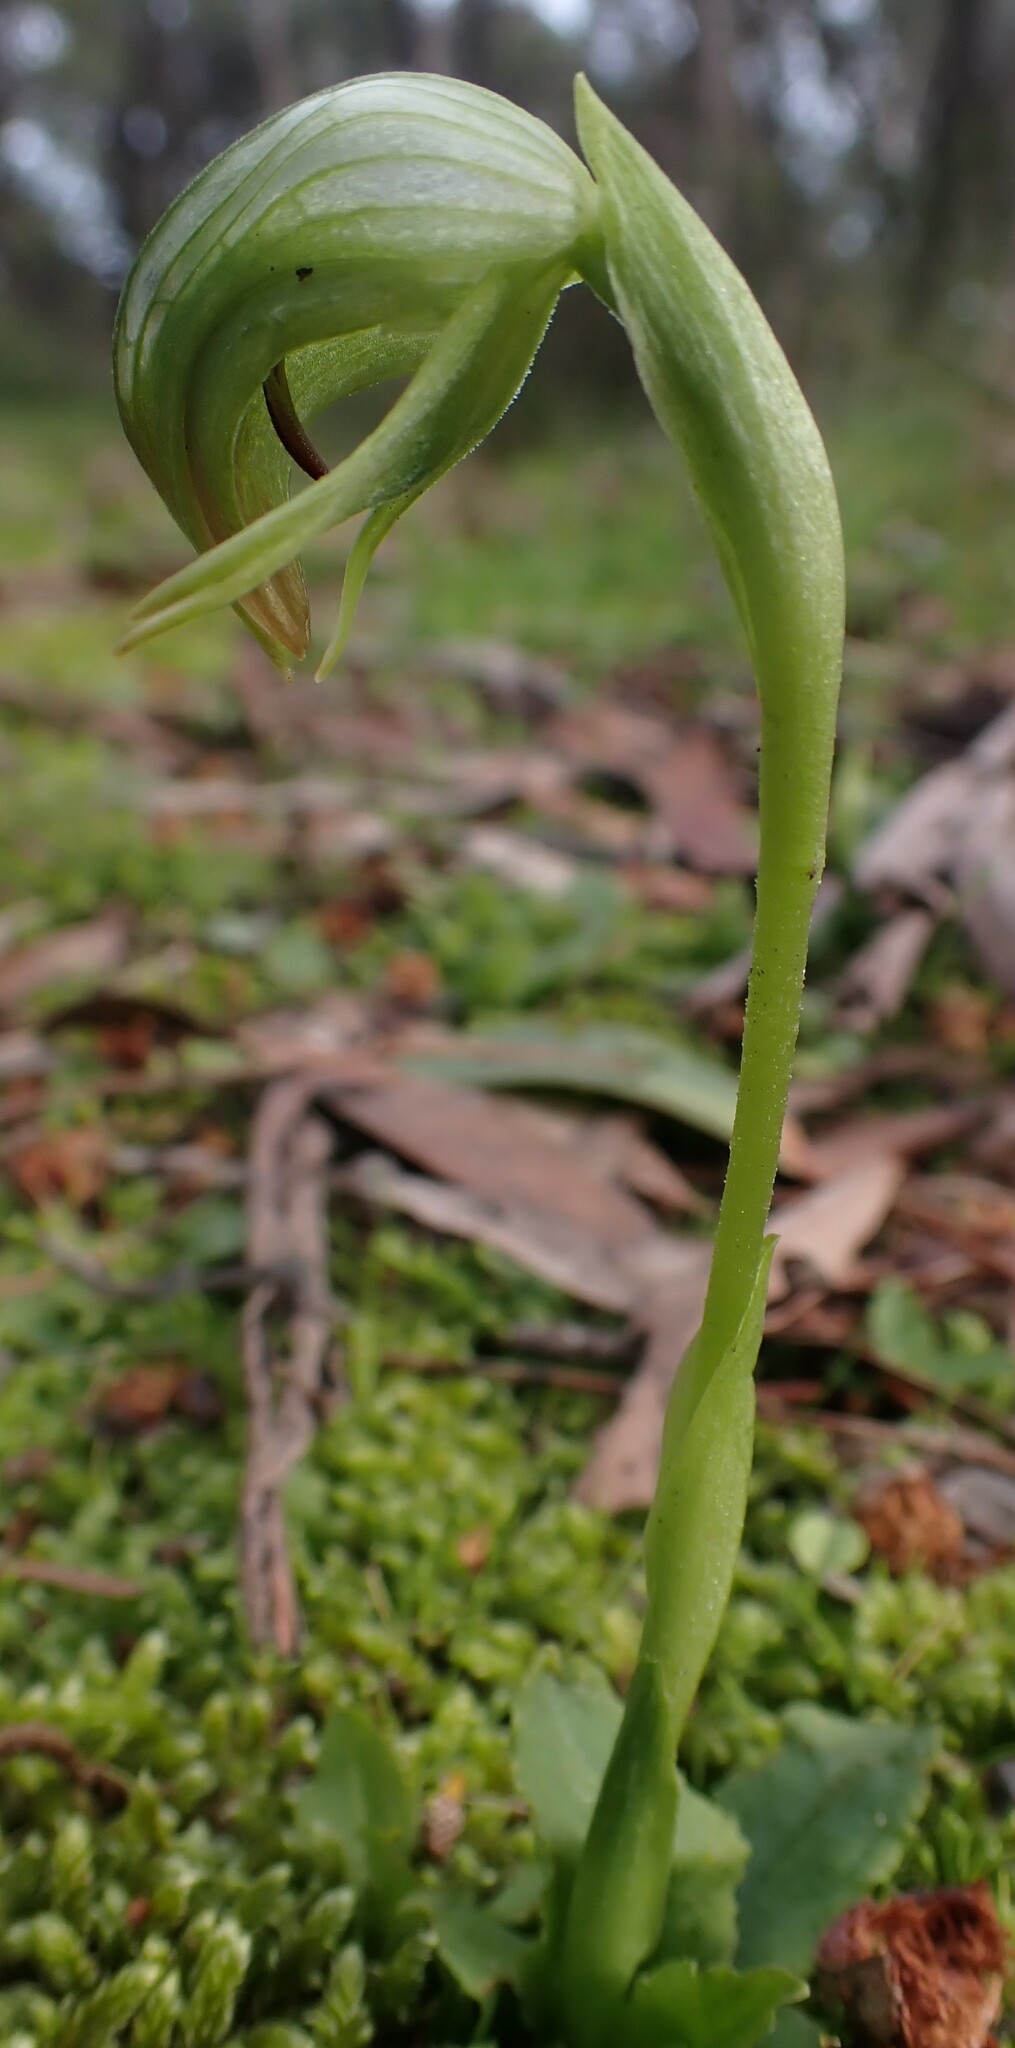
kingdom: Plantae
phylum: Tracheophyta
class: Liliopsida
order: Asparagales
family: Orchidaceae
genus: Pterostylis
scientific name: Pterostylis nutans
